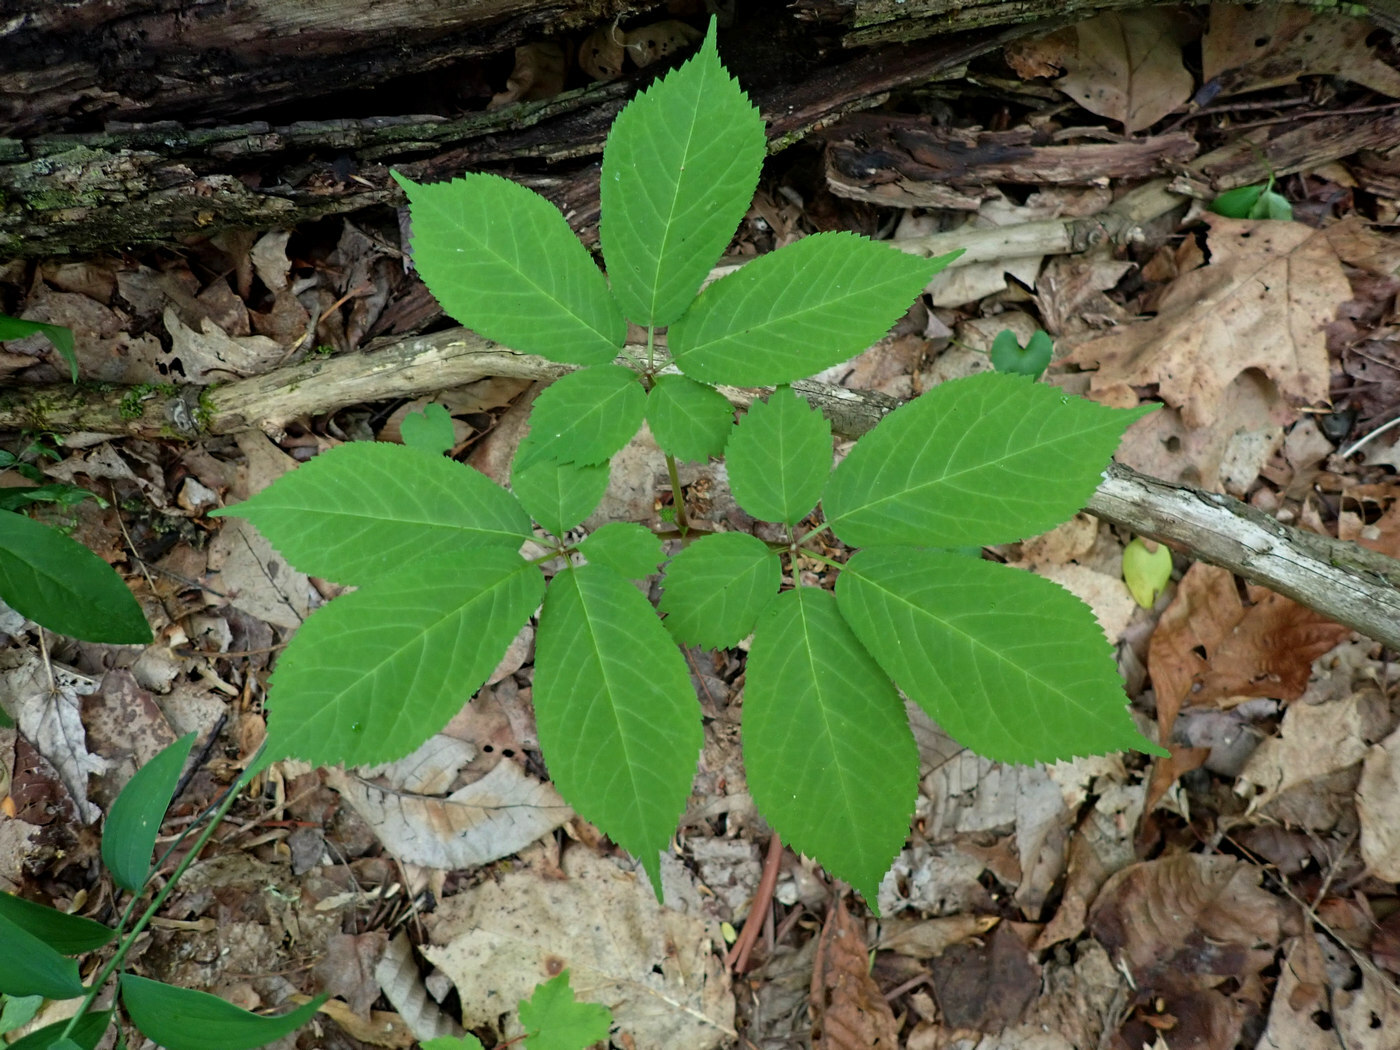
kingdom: Plantae
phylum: Tracheophyta
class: Magnoliopsida
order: Apiales
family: Araliaceae
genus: Panax
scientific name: Panax quinquefolius
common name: American ginseng
